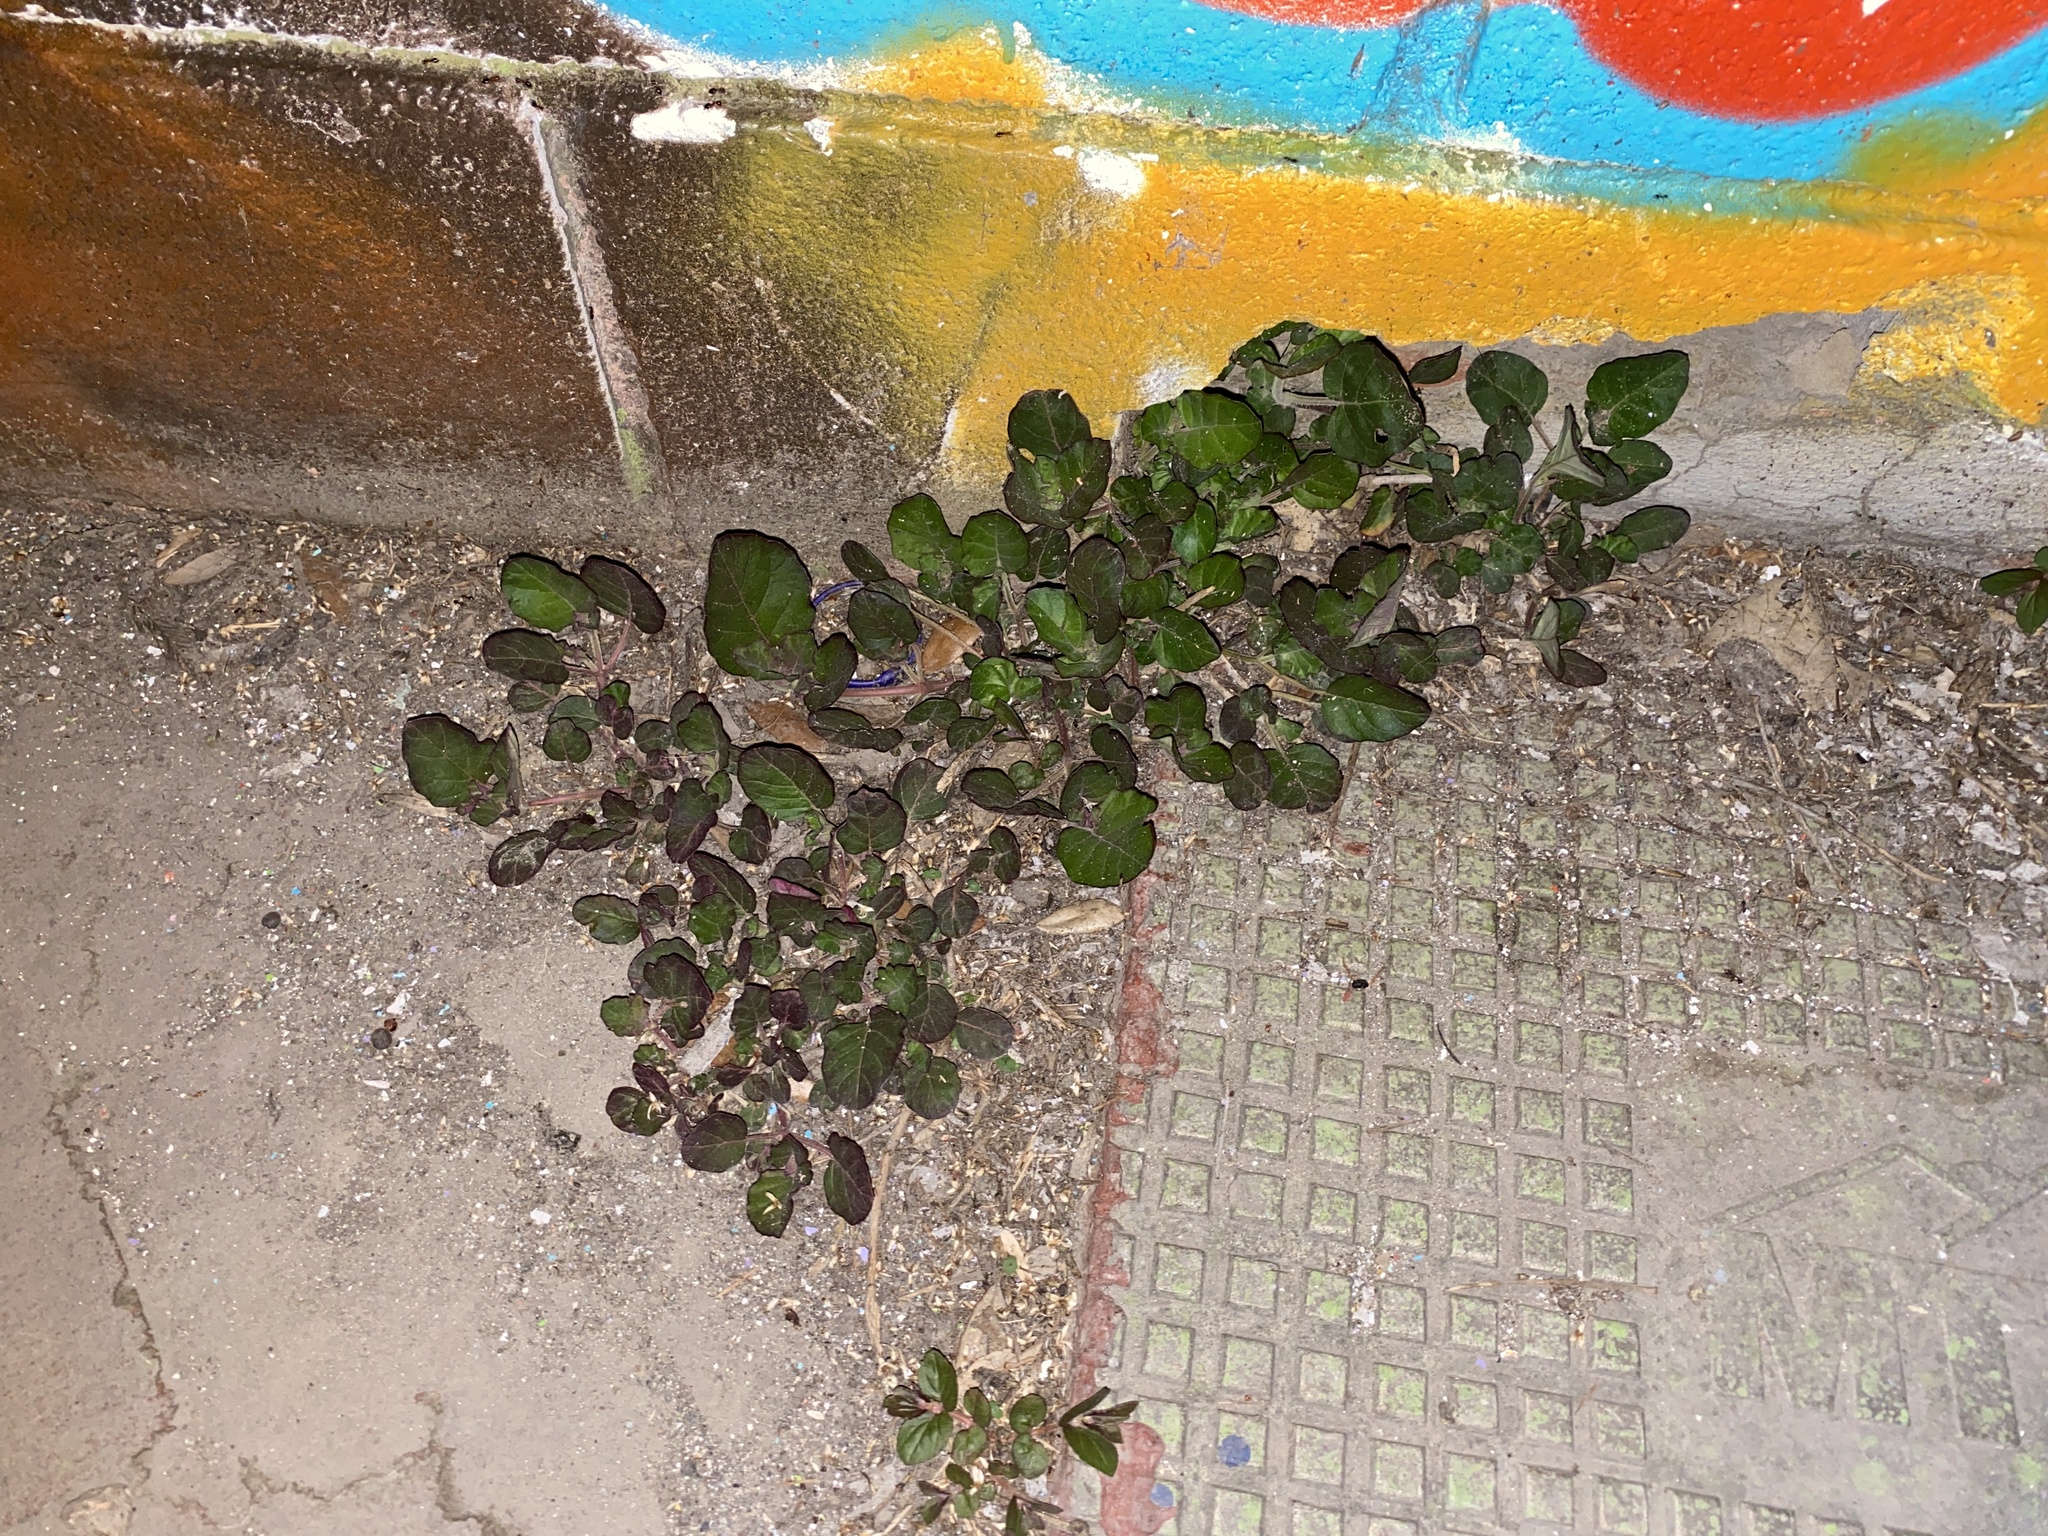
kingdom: Plantae
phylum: Tracheophyta
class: Magnoliopsida
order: Caryophyllales
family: Nyctaginaceae
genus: Boerhavia
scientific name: Boerhavia coccinea
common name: Scarlet spiderling
